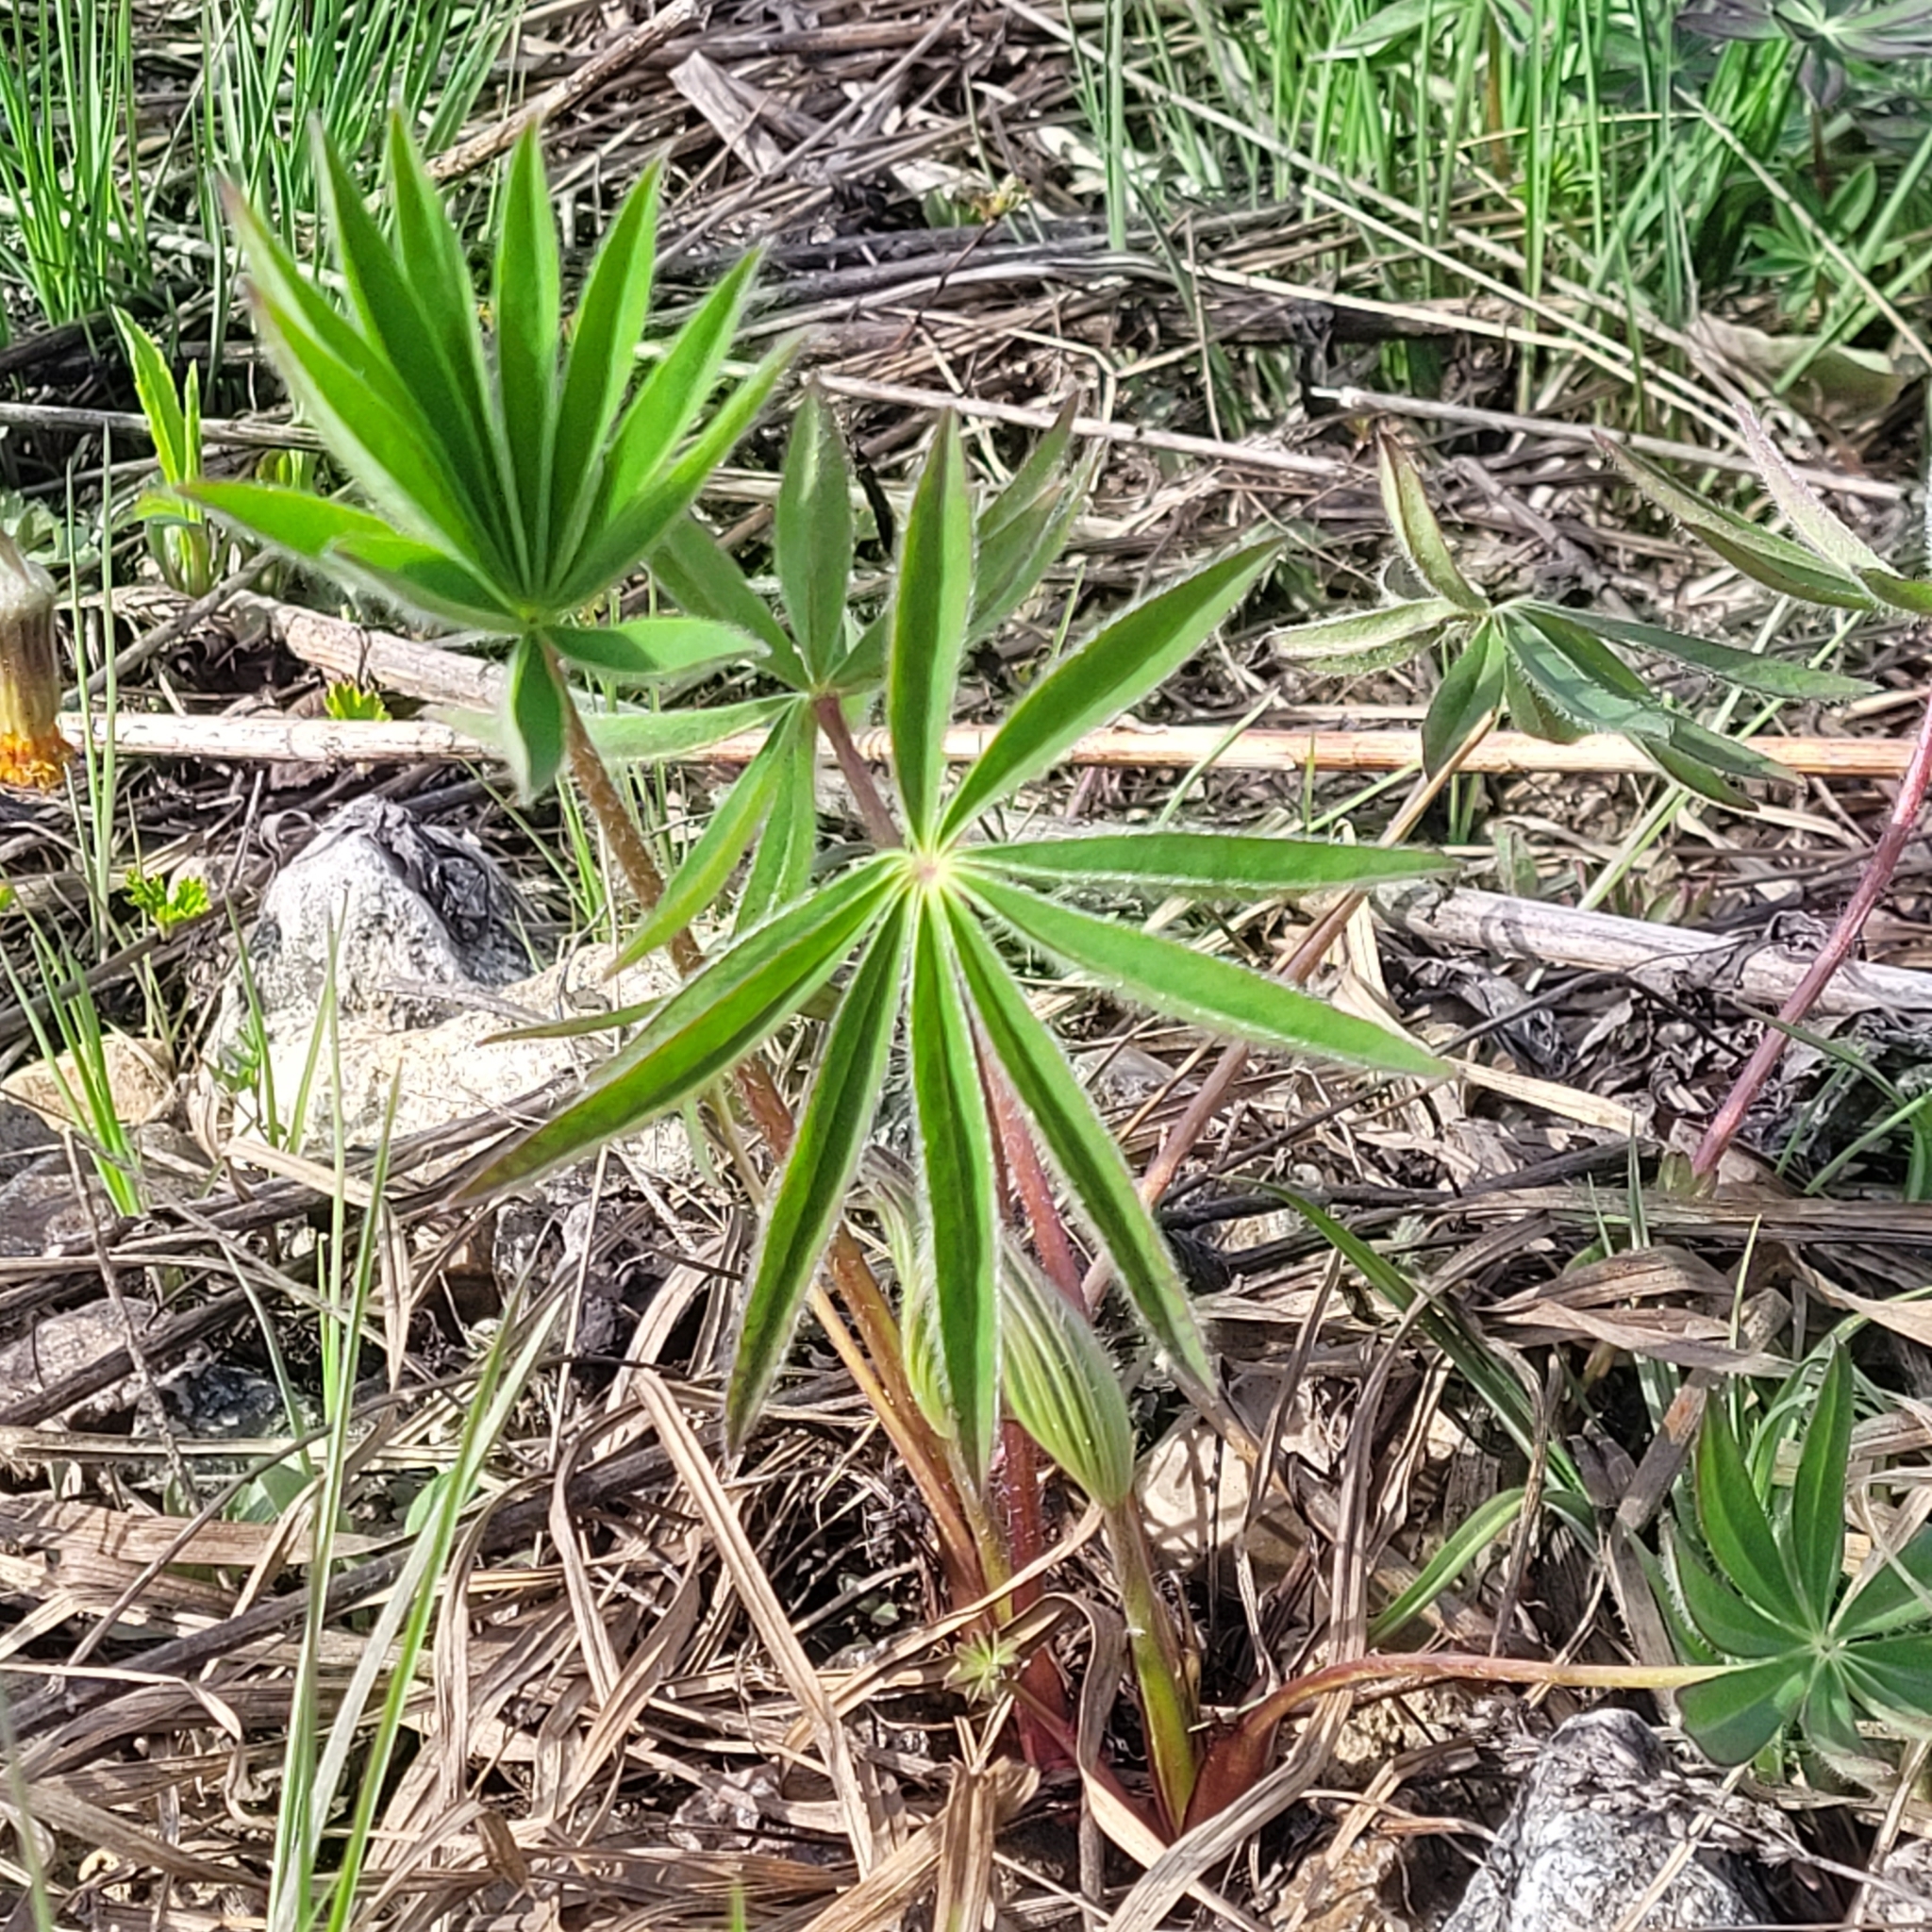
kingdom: Plantae
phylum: Tracheophyta
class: Magnoliopsida
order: Fabales
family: Fabaceae
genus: Lupinus
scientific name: Lupinus polyphyllus
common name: Garden lupin
